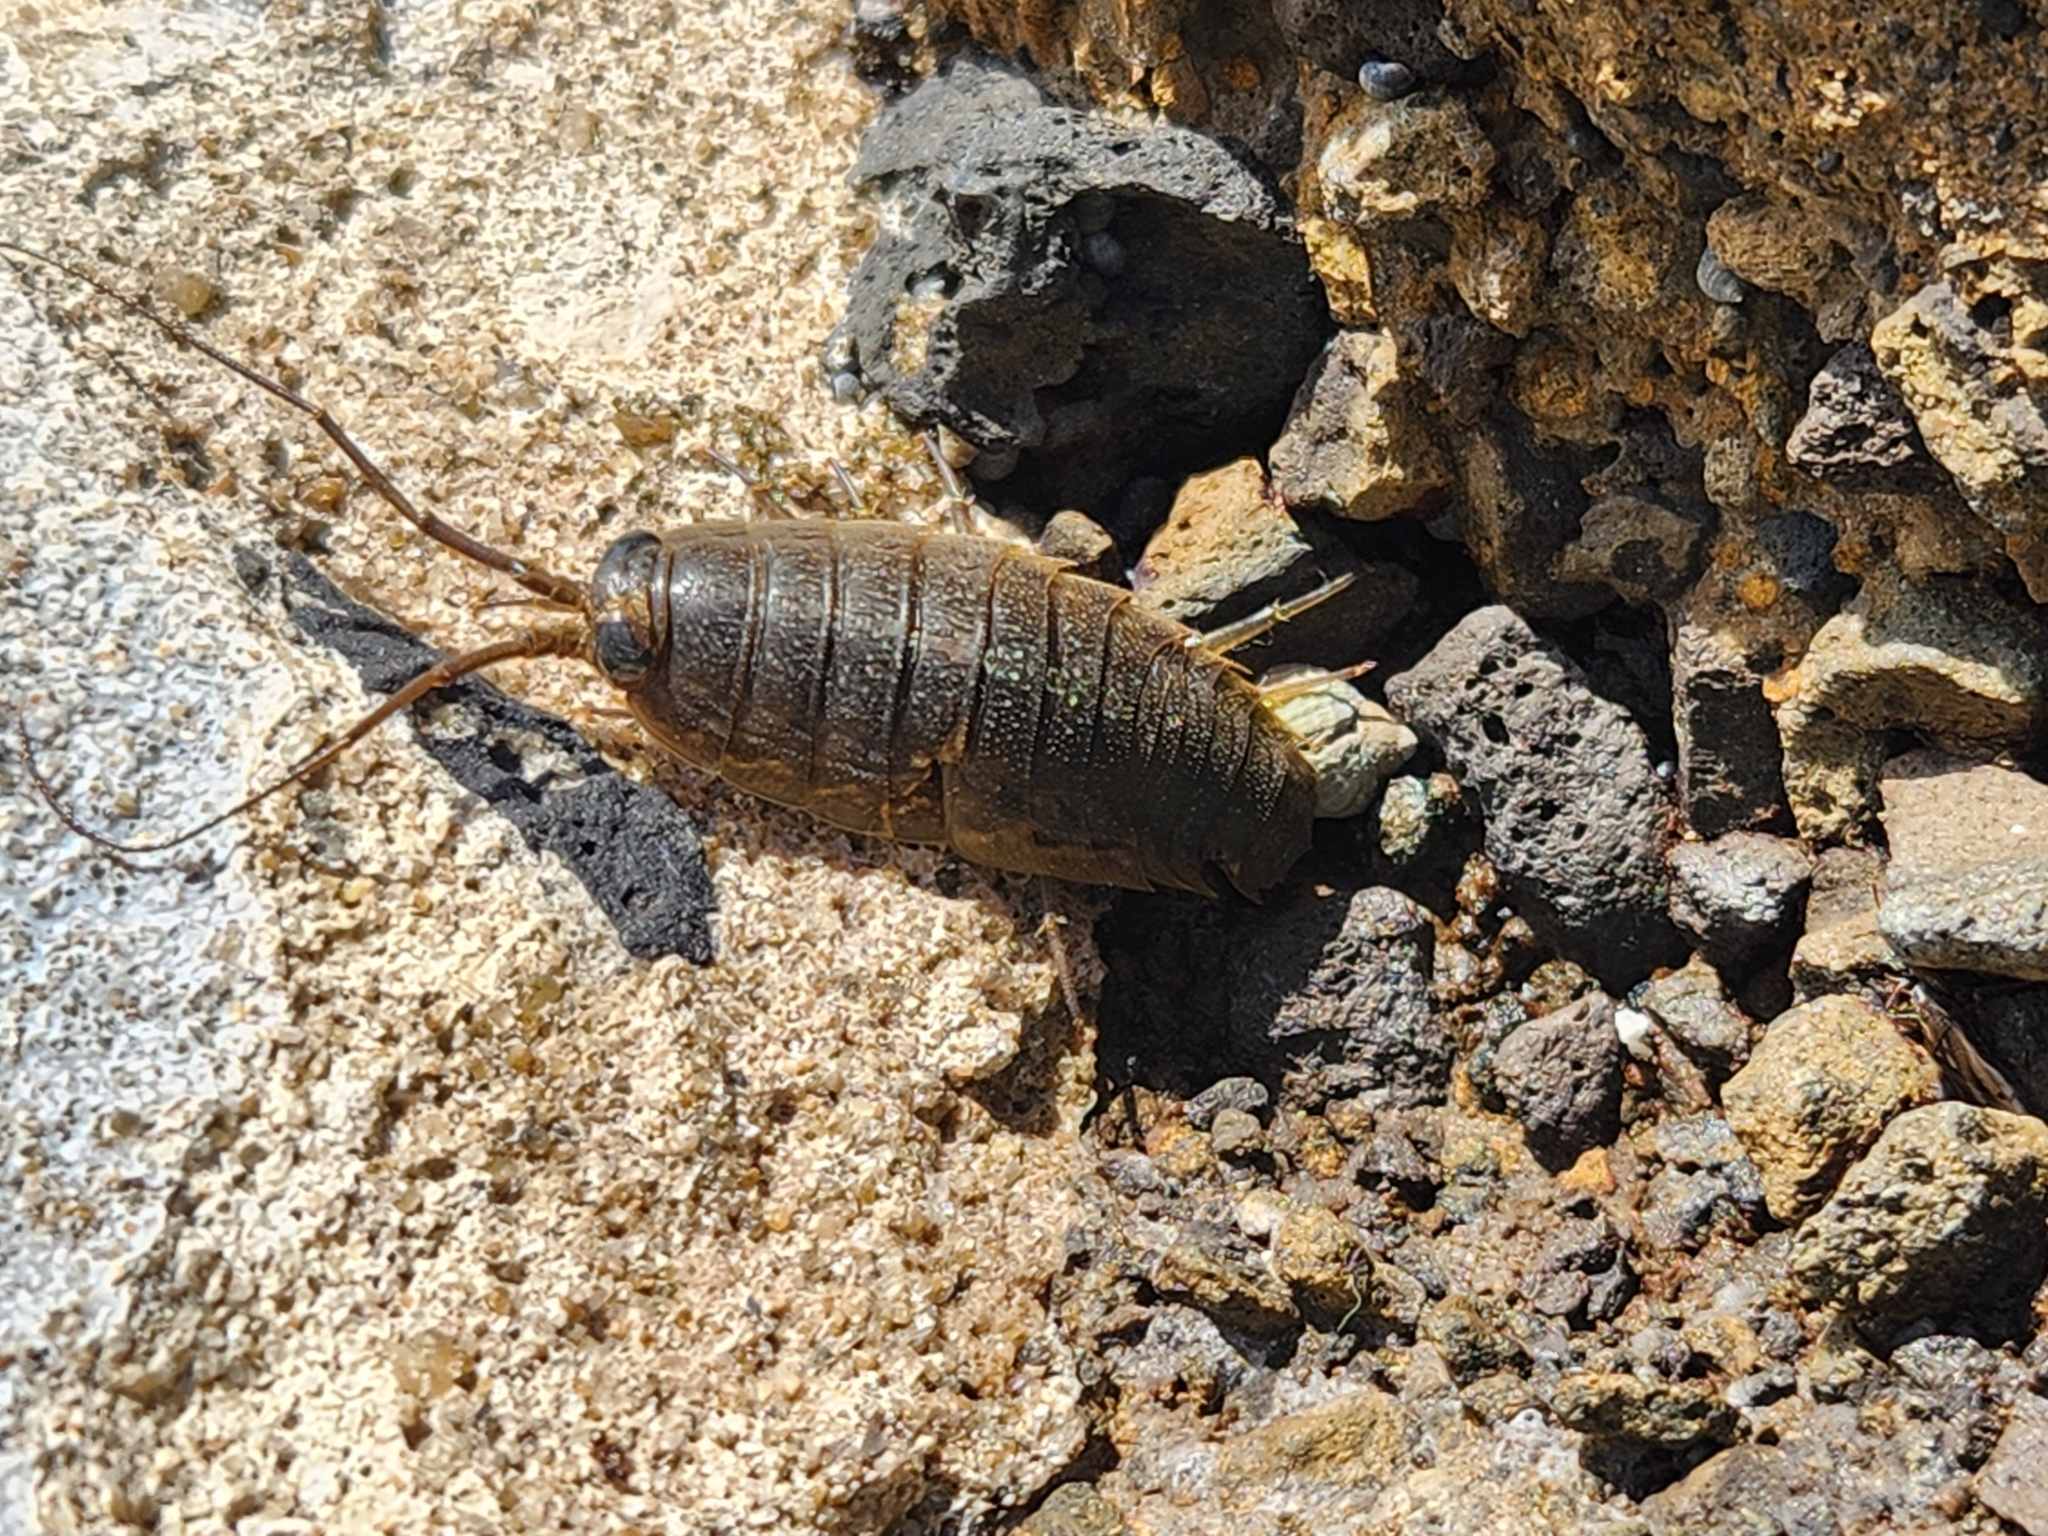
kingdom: Animalia
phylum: Arthropoda
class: Malacostraca
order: Isopoda
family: Ligiidae
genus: Ligia
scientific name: Ligia exotica
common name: Wharf roach
